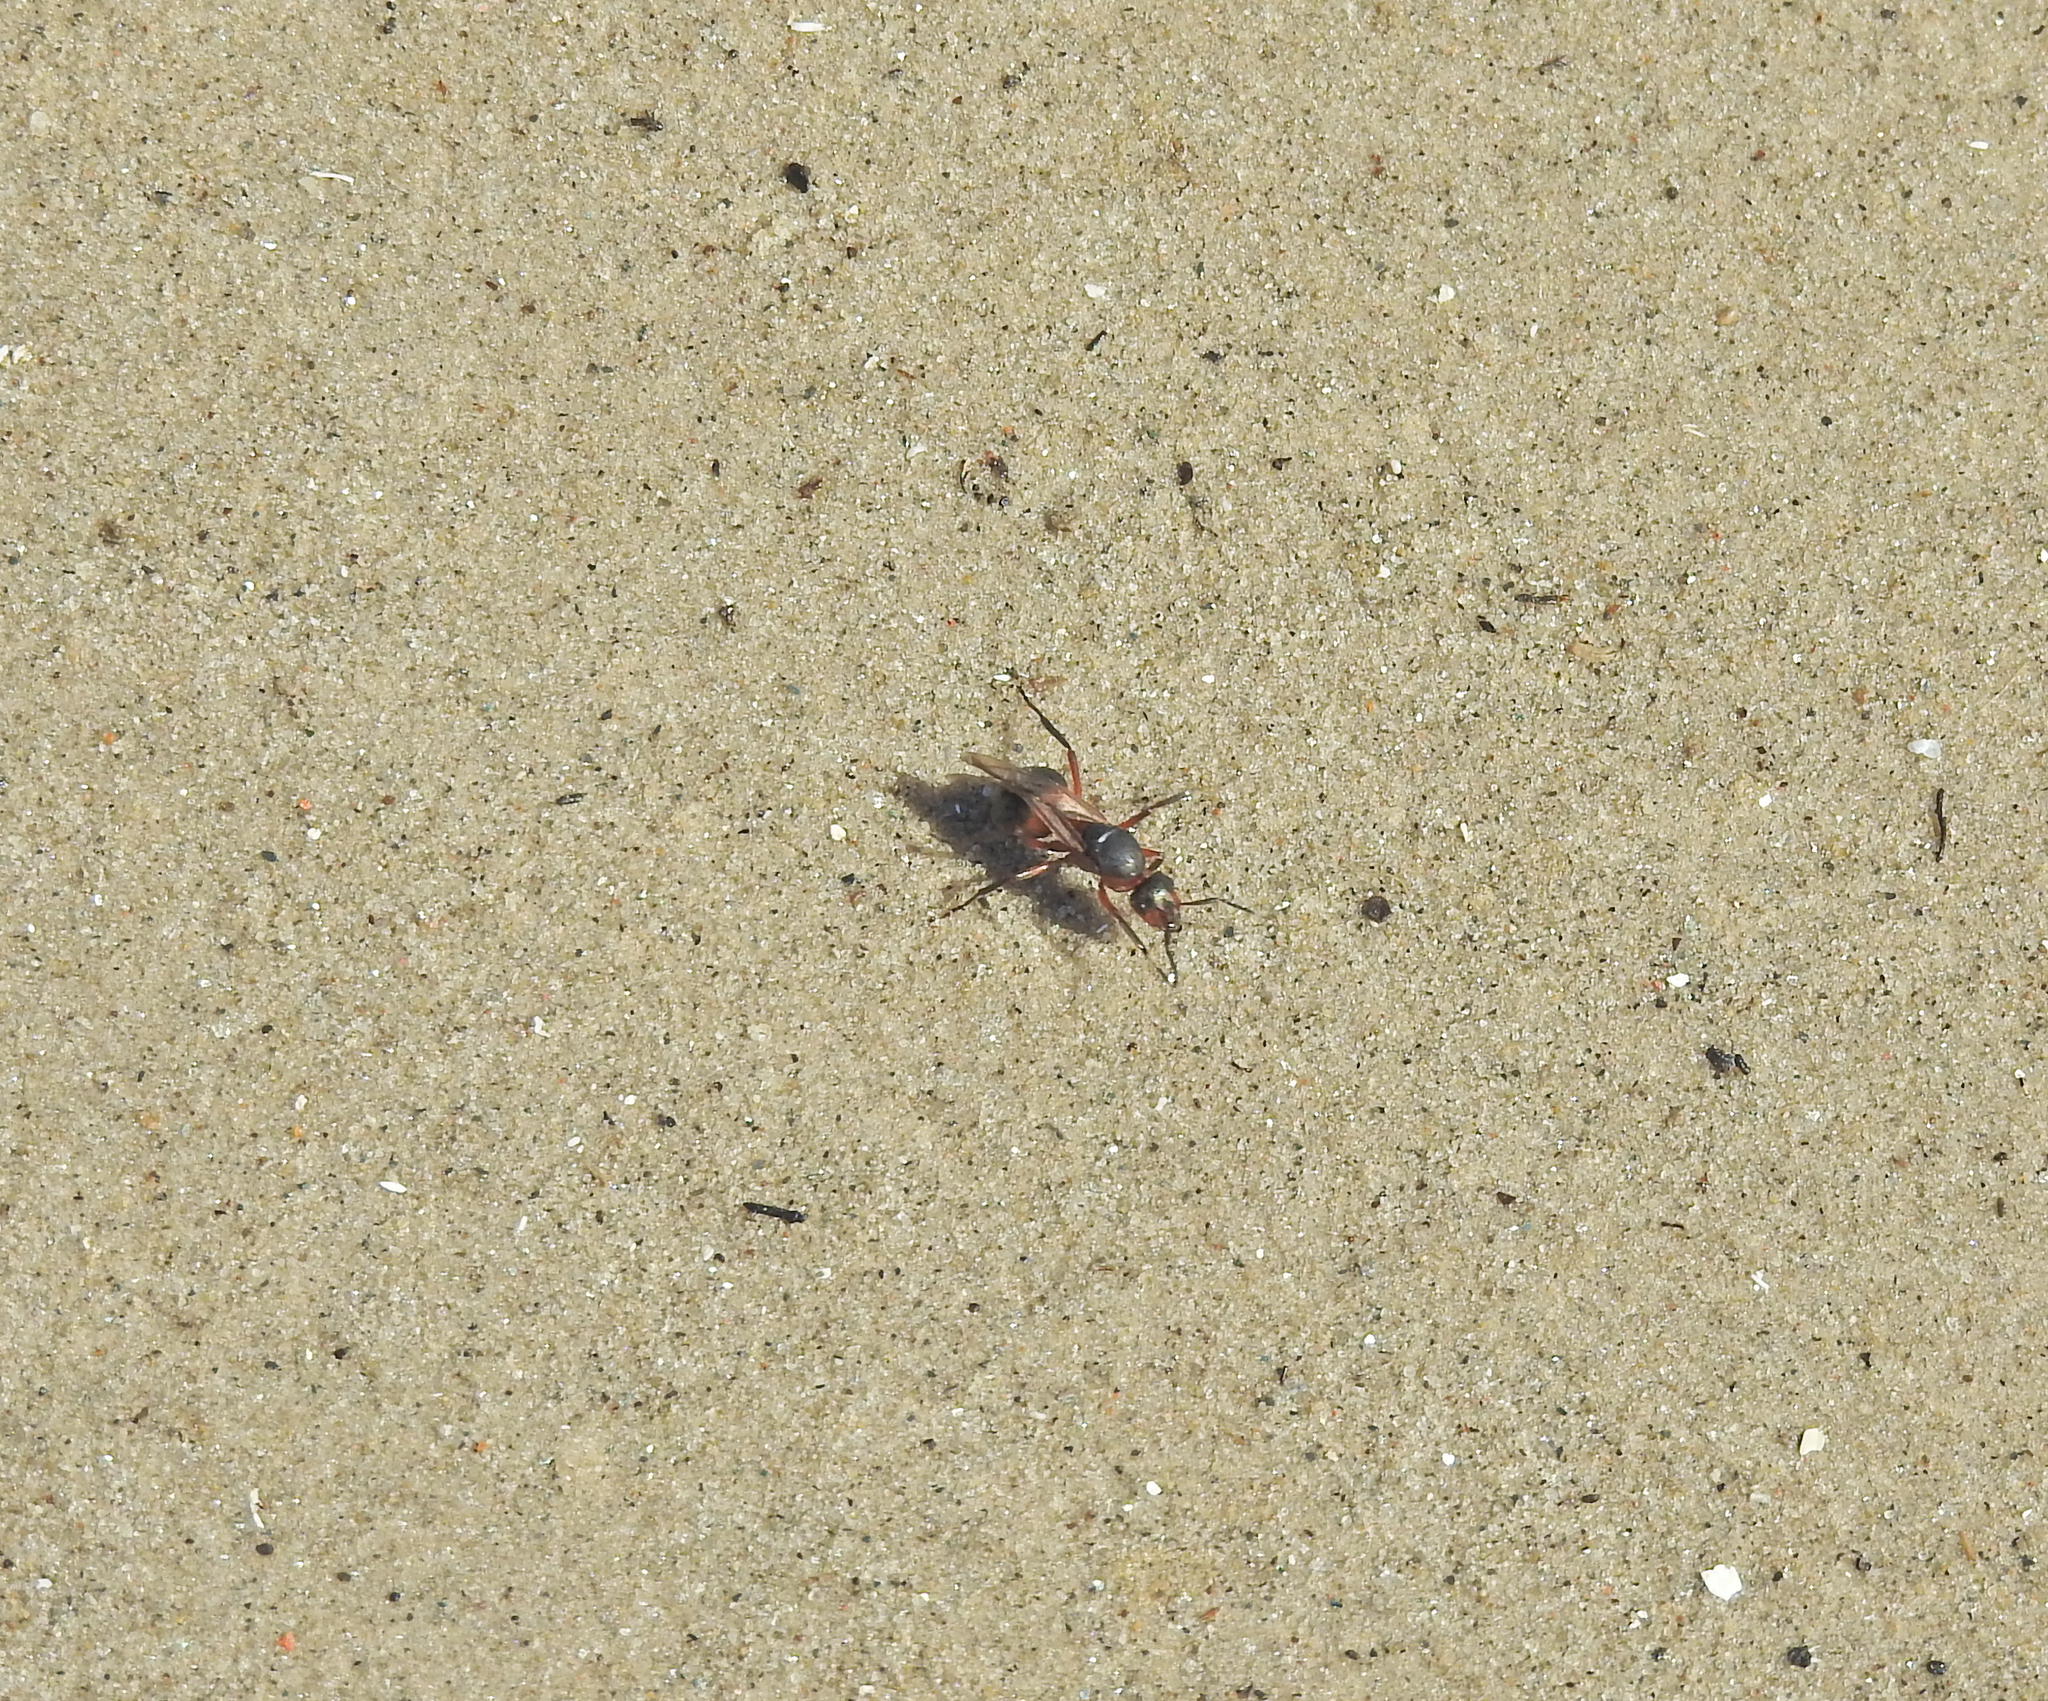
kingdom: Animalia
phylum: Arthropoda
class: Insecta
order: Hymenoptera
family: Formicidae
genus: Formica
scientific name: Formica
